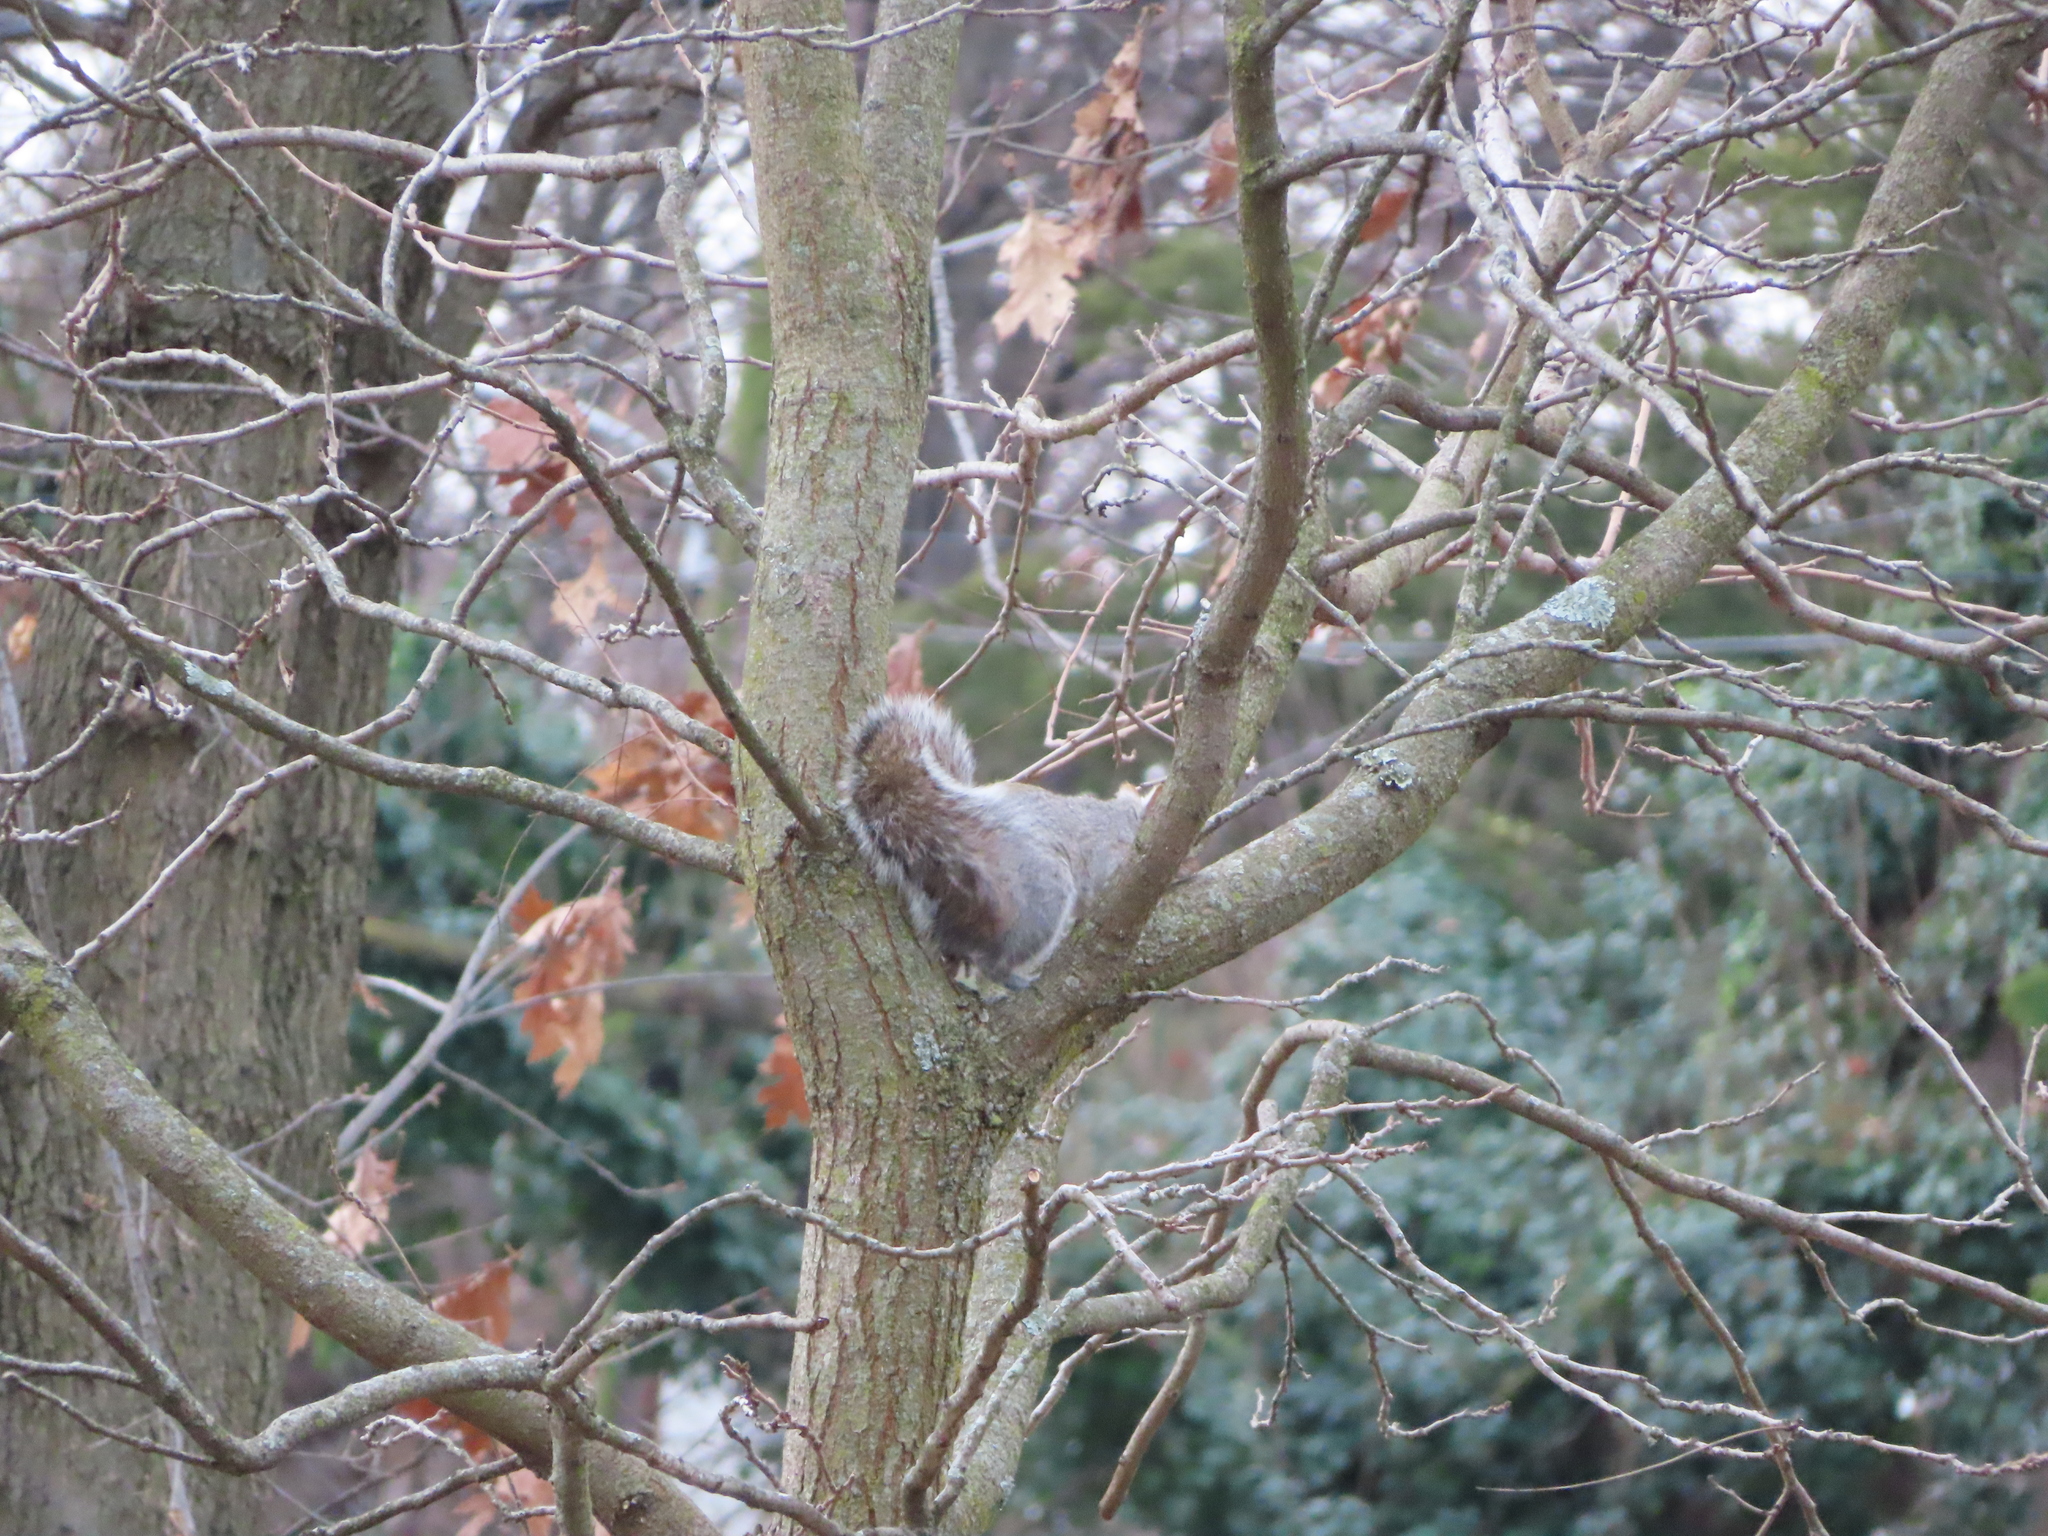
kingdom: Animalia
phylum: Chordata
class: Mammalia
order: Rodentia
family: Sciuridae
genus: Sciurus
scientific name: Sciurus carolinensis
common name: Eastern gray squirrel
